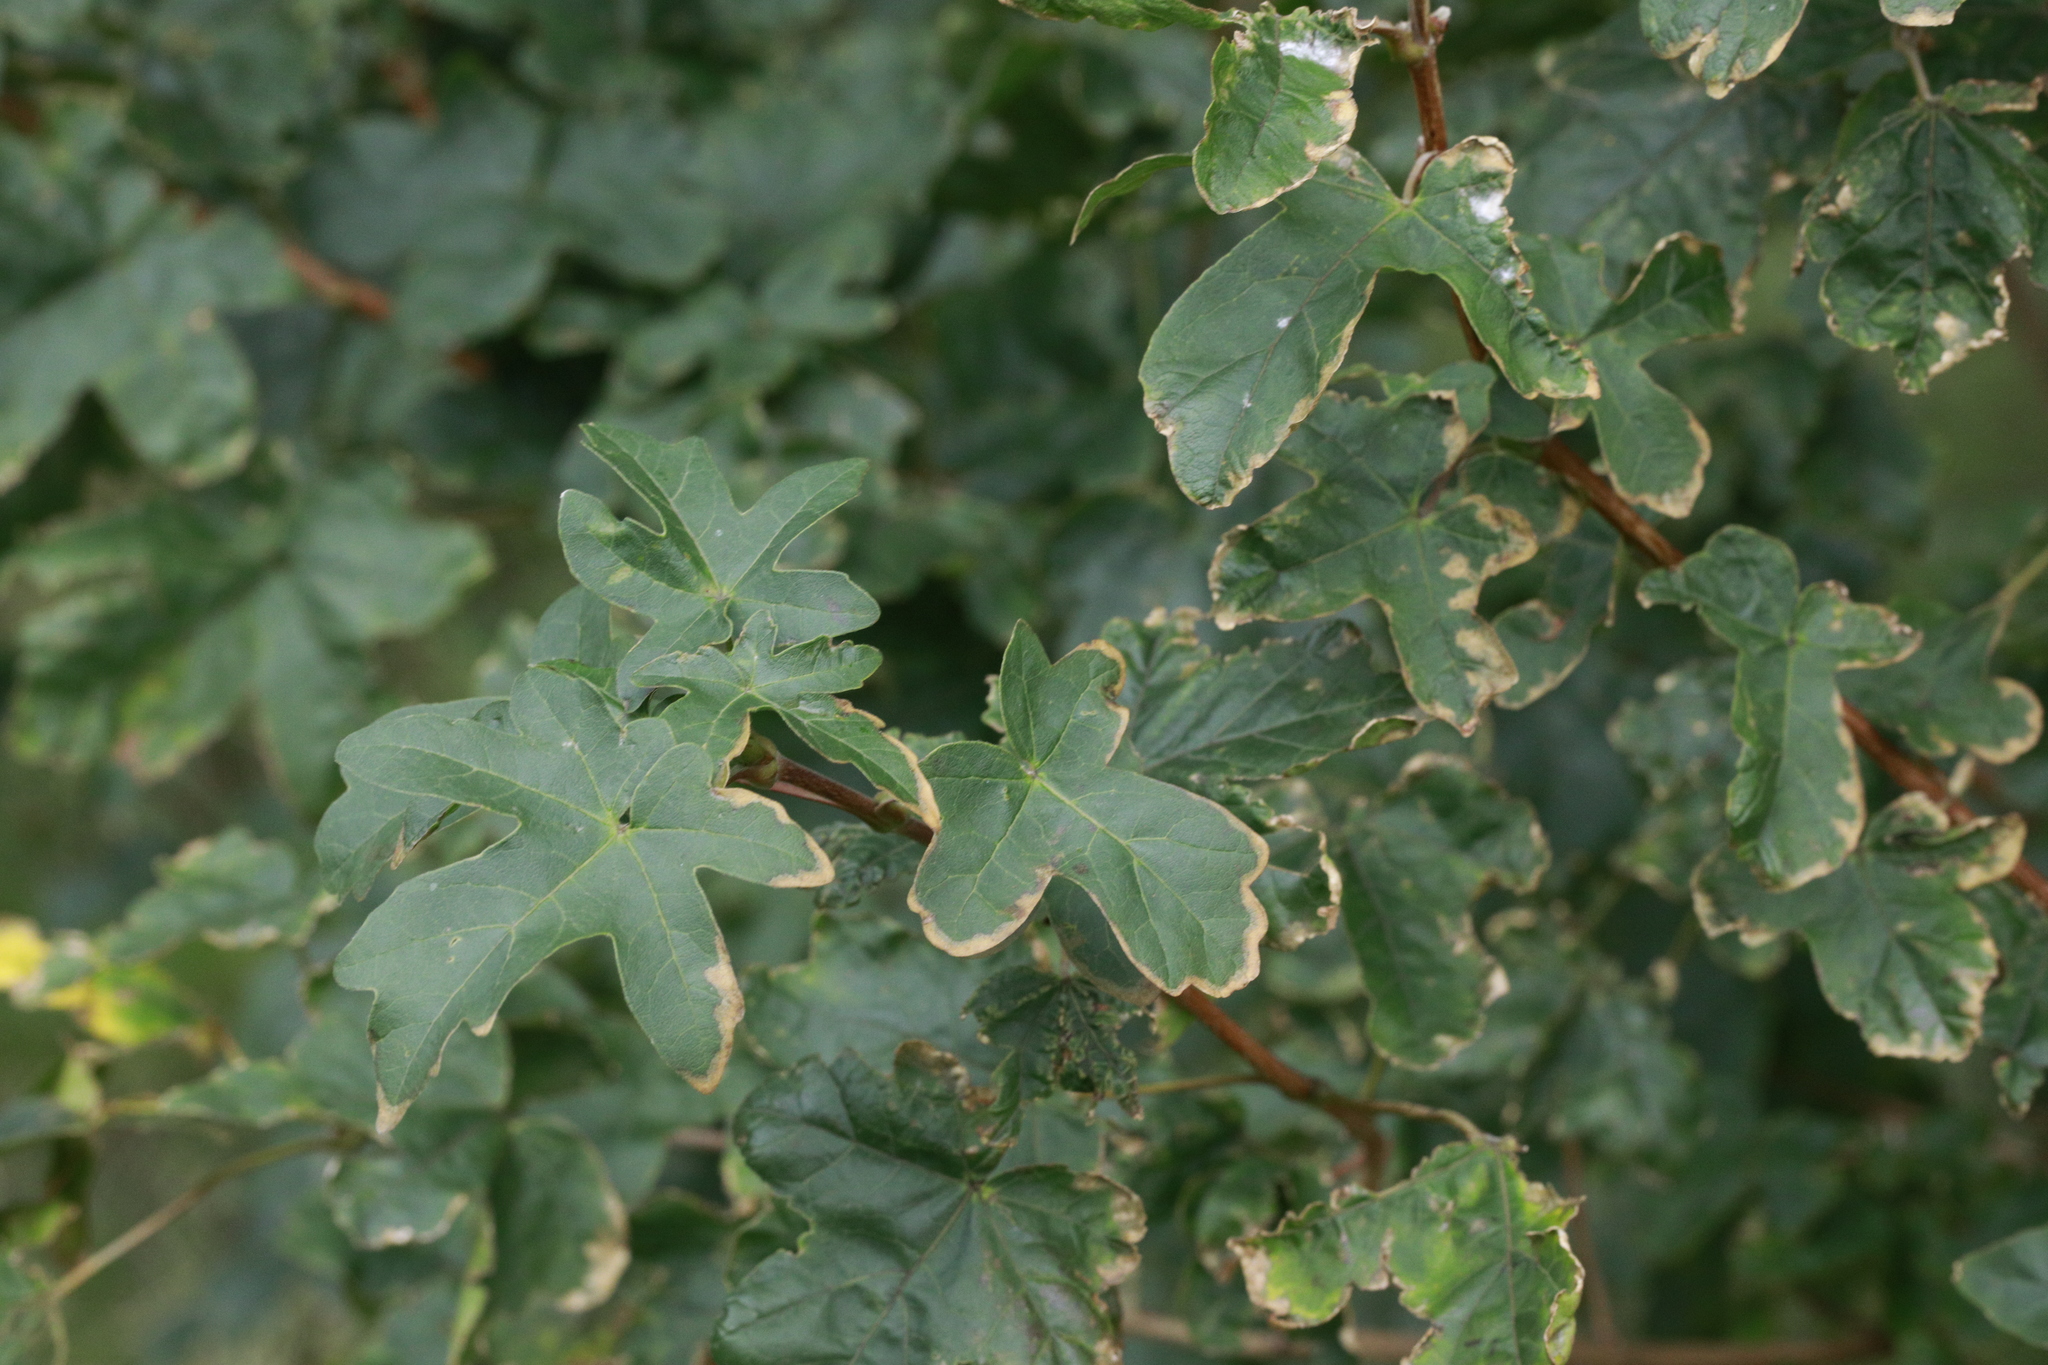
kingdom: Plantae
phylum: Tracheophyta
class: Magnoliopsida
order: Sapindales
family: Sapindaceae
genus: Acer
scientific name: Acer campestre
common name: Field maple
